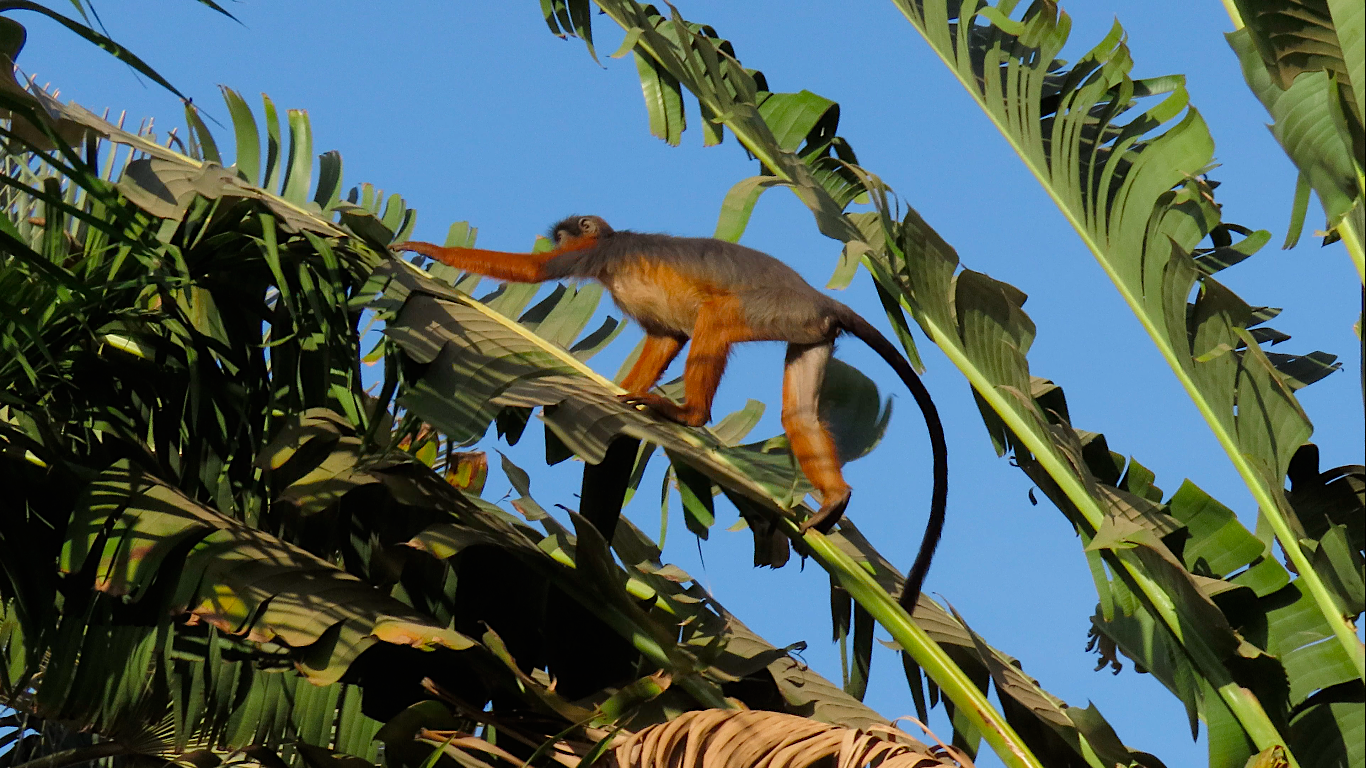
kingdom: Animalia
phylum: Chordata
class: Mammalia
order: Primates
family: Cercopithecidae
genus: Piliocolobus
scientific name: Piliocolobus badius
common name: Western red colobus
